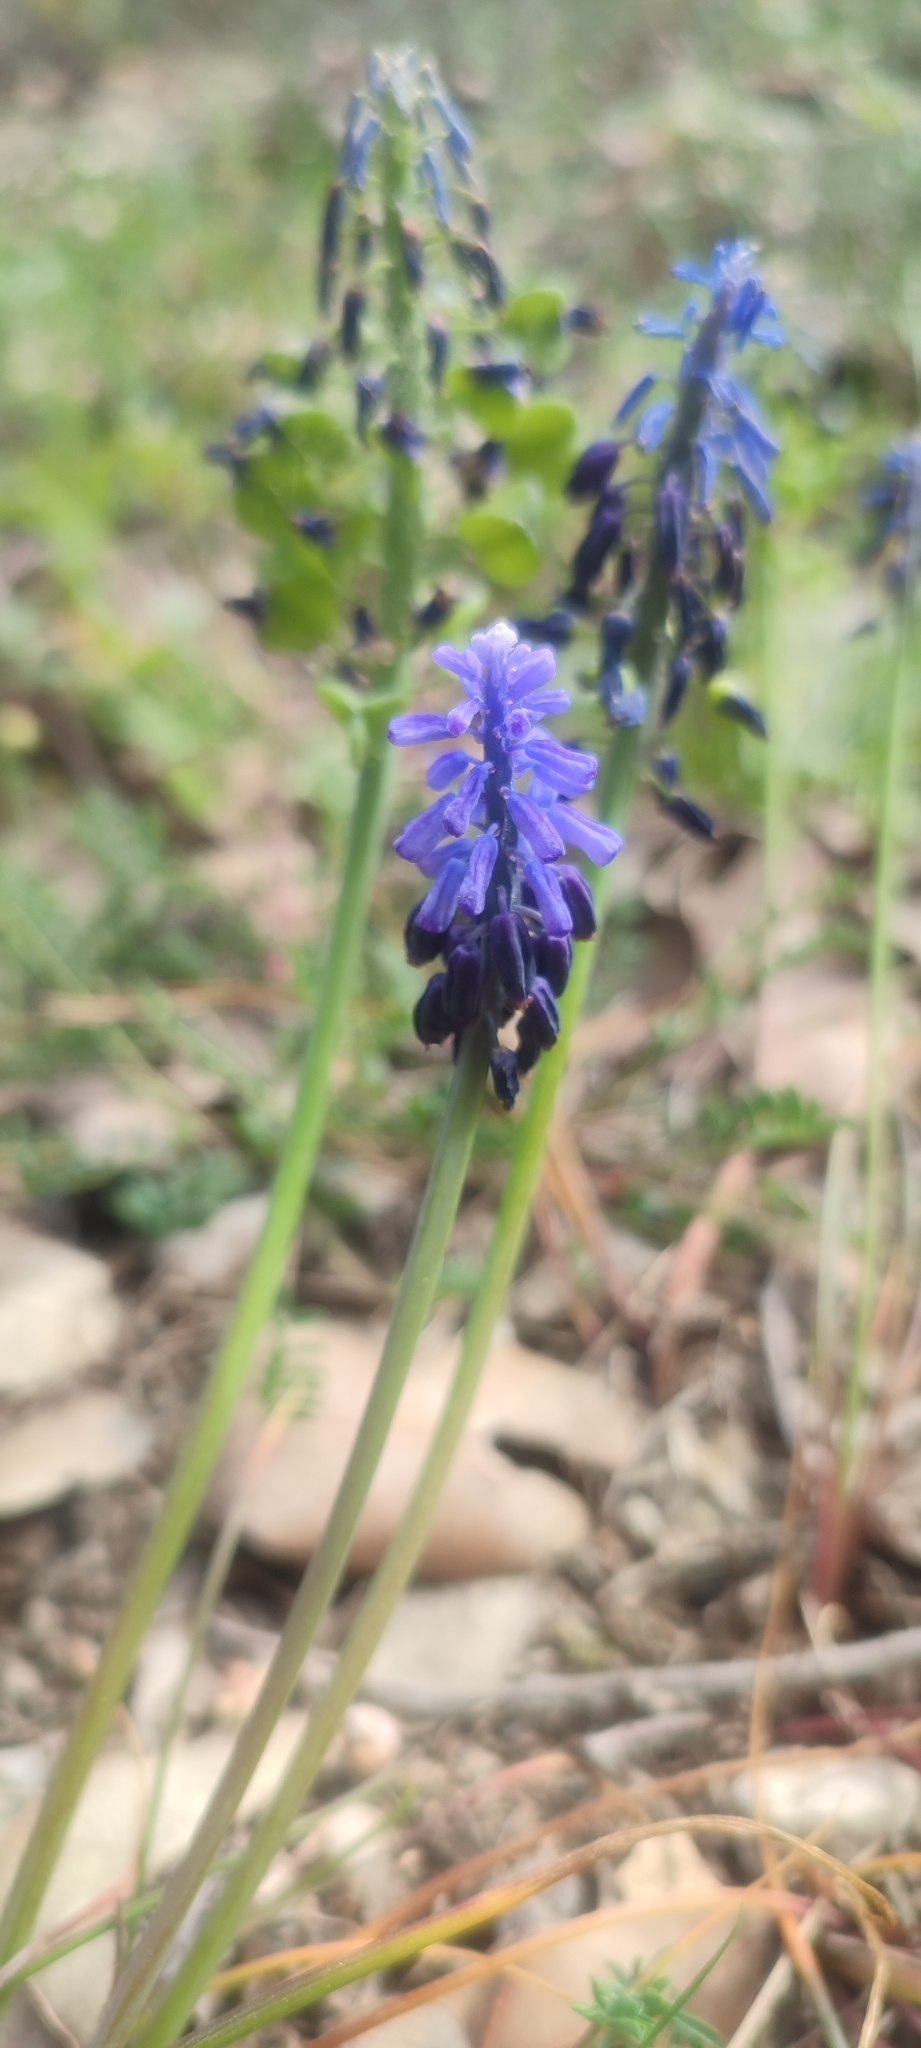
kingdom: Plantae
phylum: Tracheophyta
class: Liliopsida
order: Asparagales
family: Asparagaceae
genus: Muscari
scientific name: Muscari neglectum
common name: Grape-hyacinth
